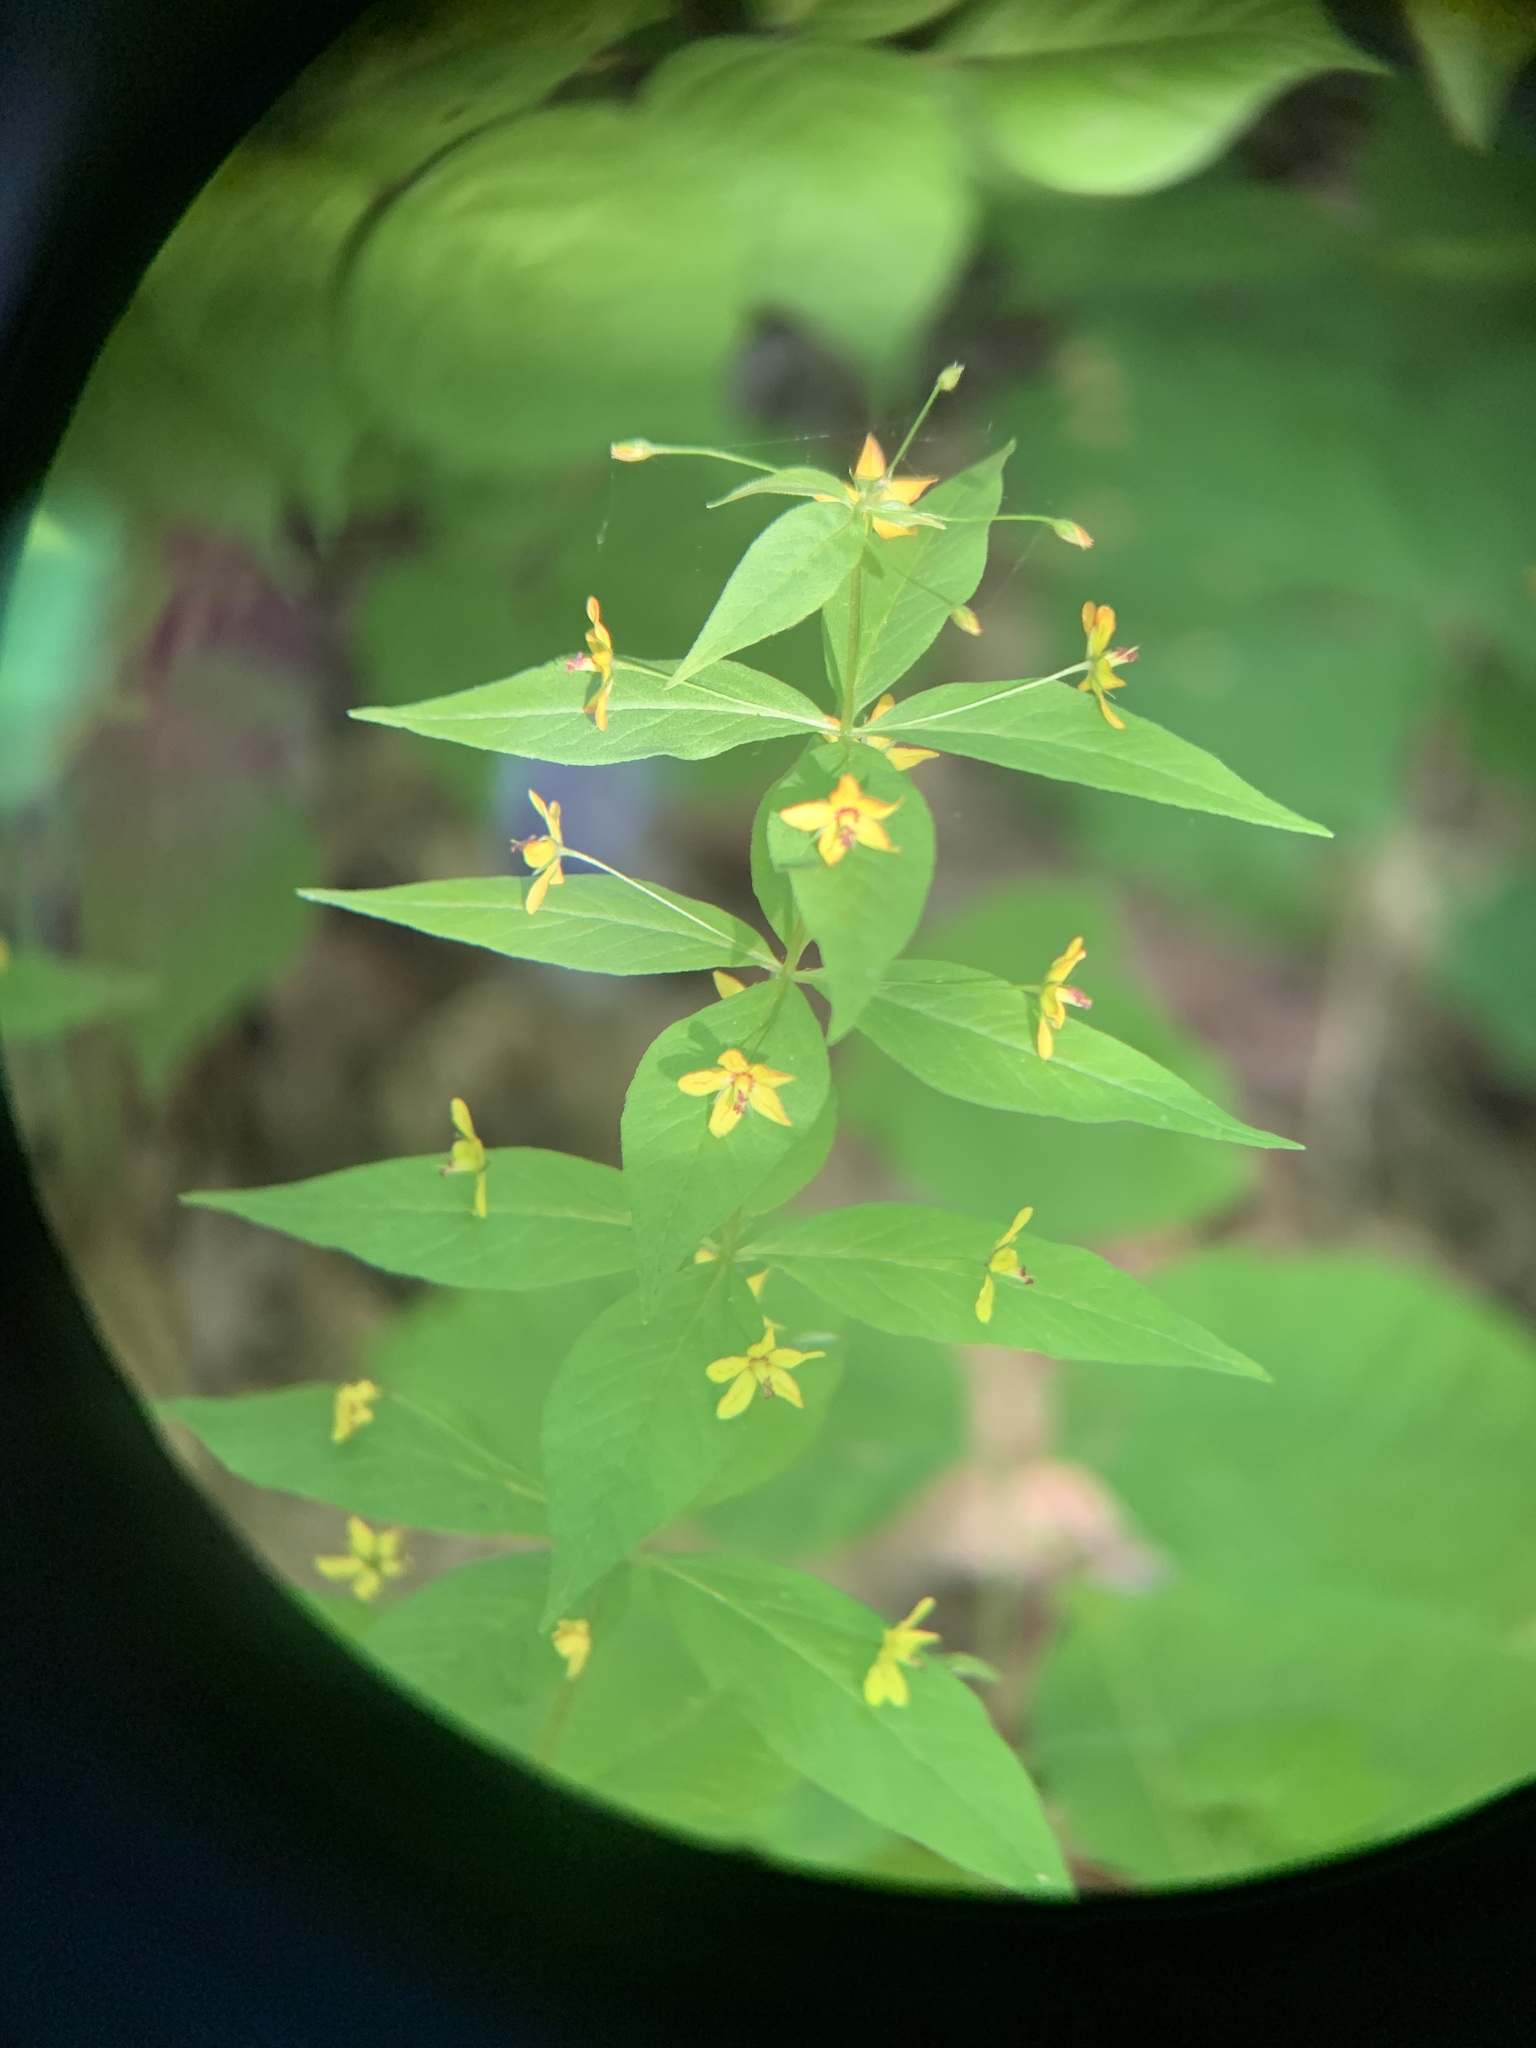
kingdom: Plantae
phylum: Tracheophyta
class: Magnoliopsida
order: Ericales
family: Primulaceae
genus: Lysimachia
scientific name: Lysimachia quadrifolia
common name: Whorled loosestrife
